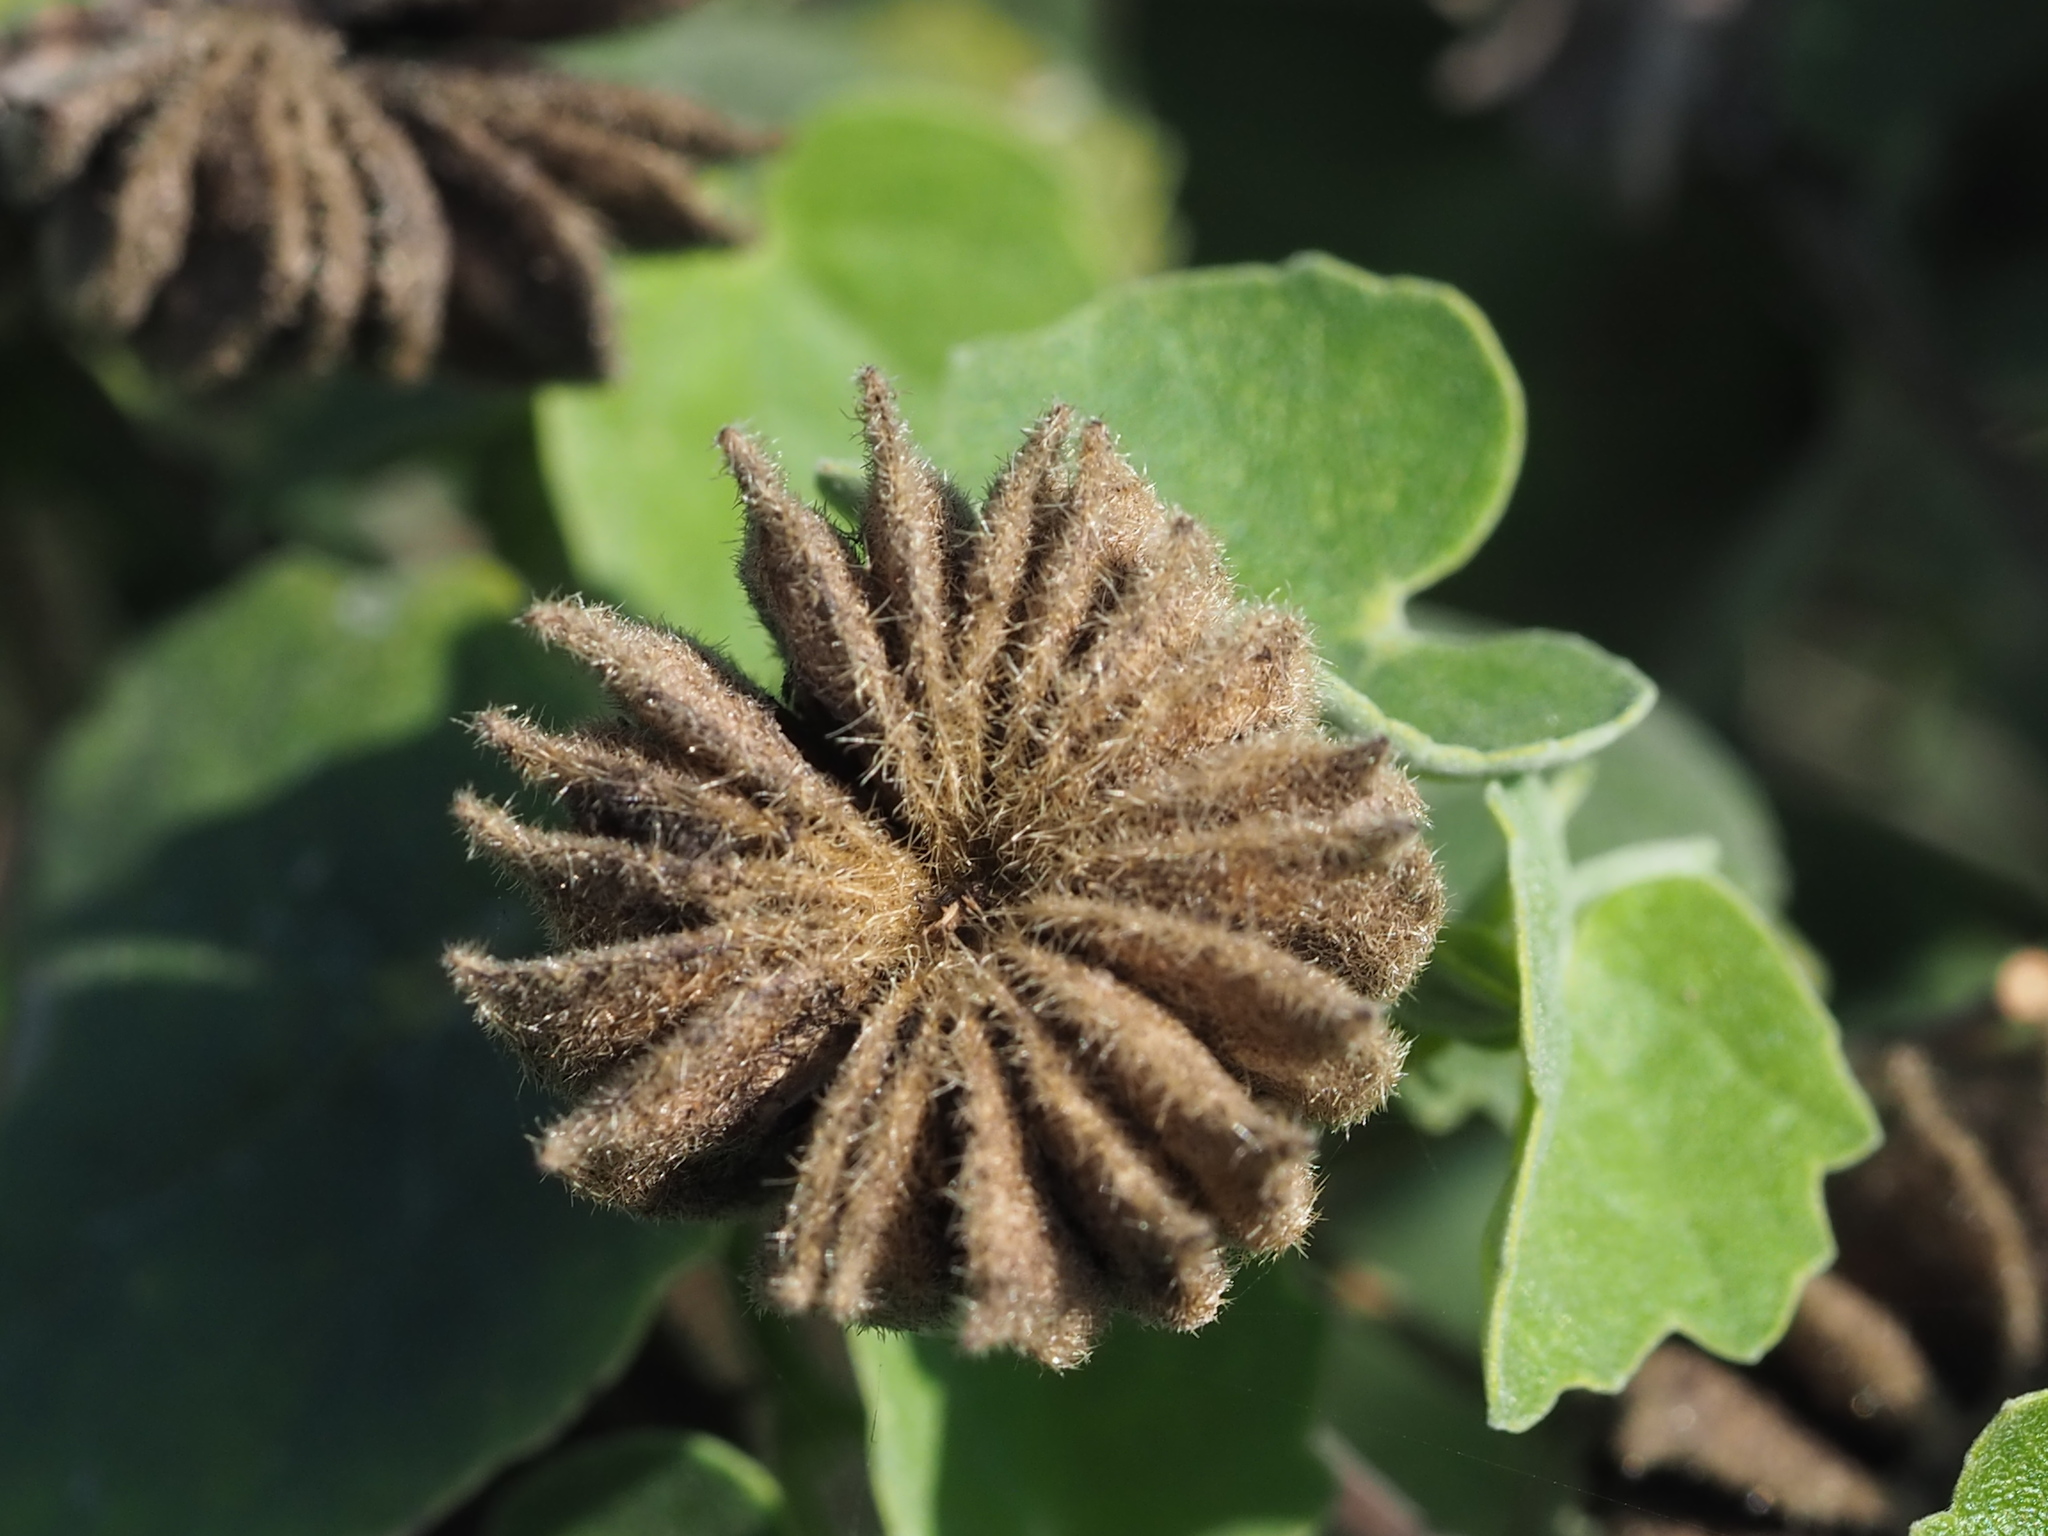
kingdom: Plantae
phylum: Tracheophyta
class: Magnoliopsida
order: Malvales
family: Malvaceae
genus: Abutilon
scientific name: Abutilon indicum
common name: Indian abutilon
